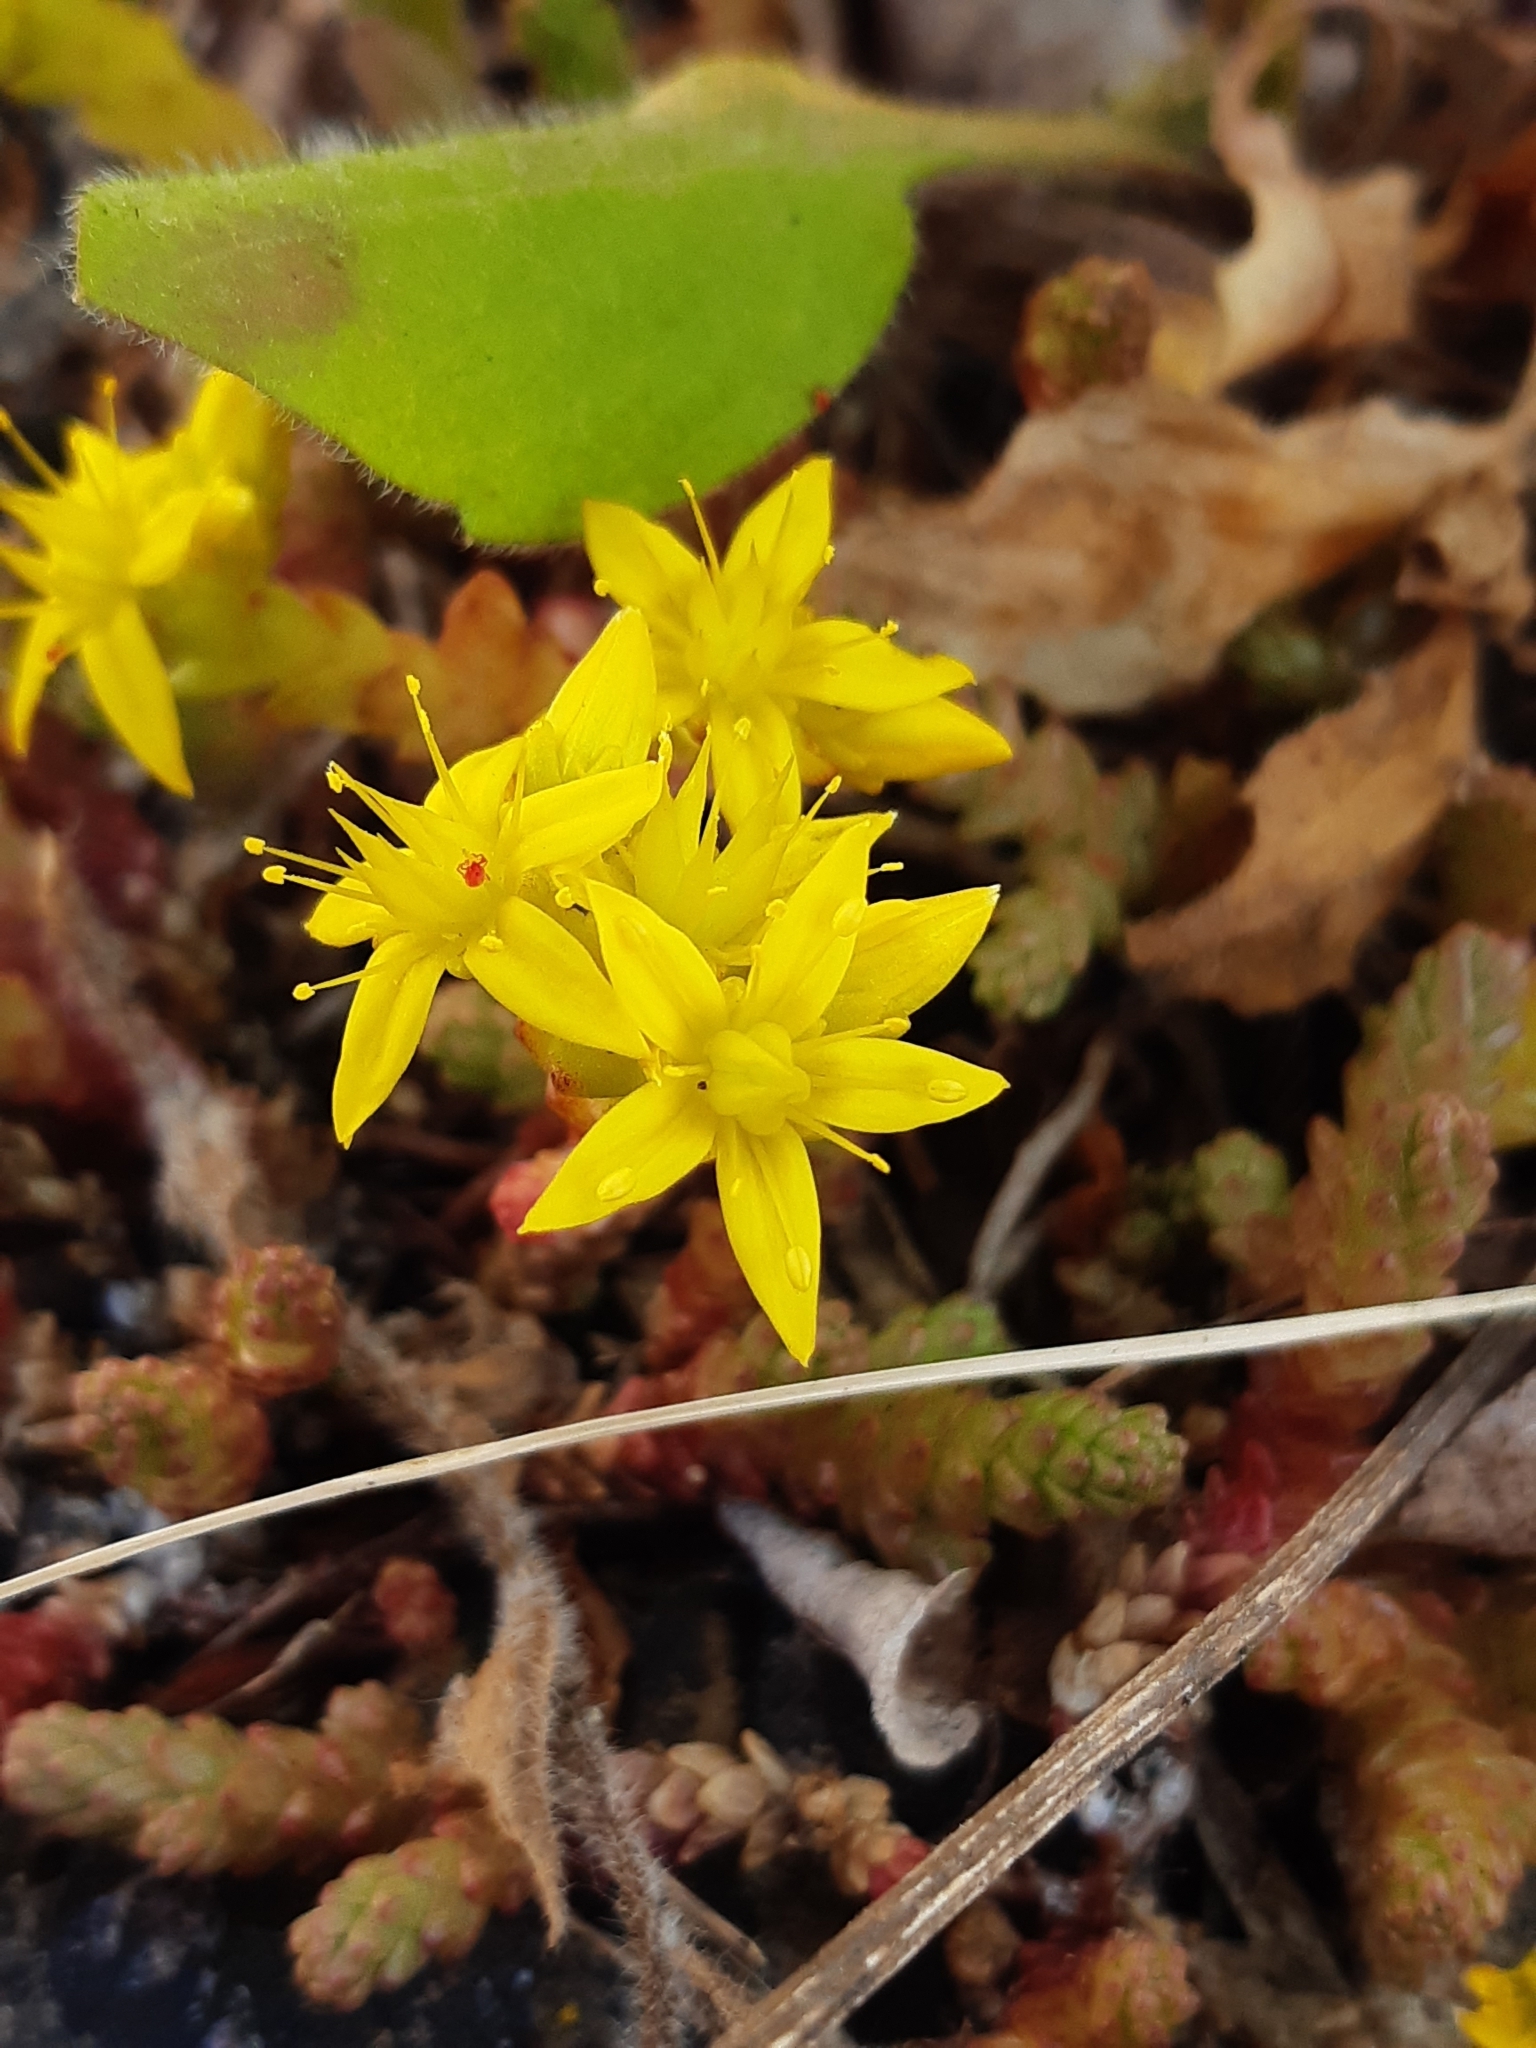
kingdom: Plantae
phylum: Tracheophyta
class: Magnoliopsida
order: Saxifragales
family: Crassulaceae
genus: Sedum
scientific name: Sedum acre
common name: Biting stonecrop
